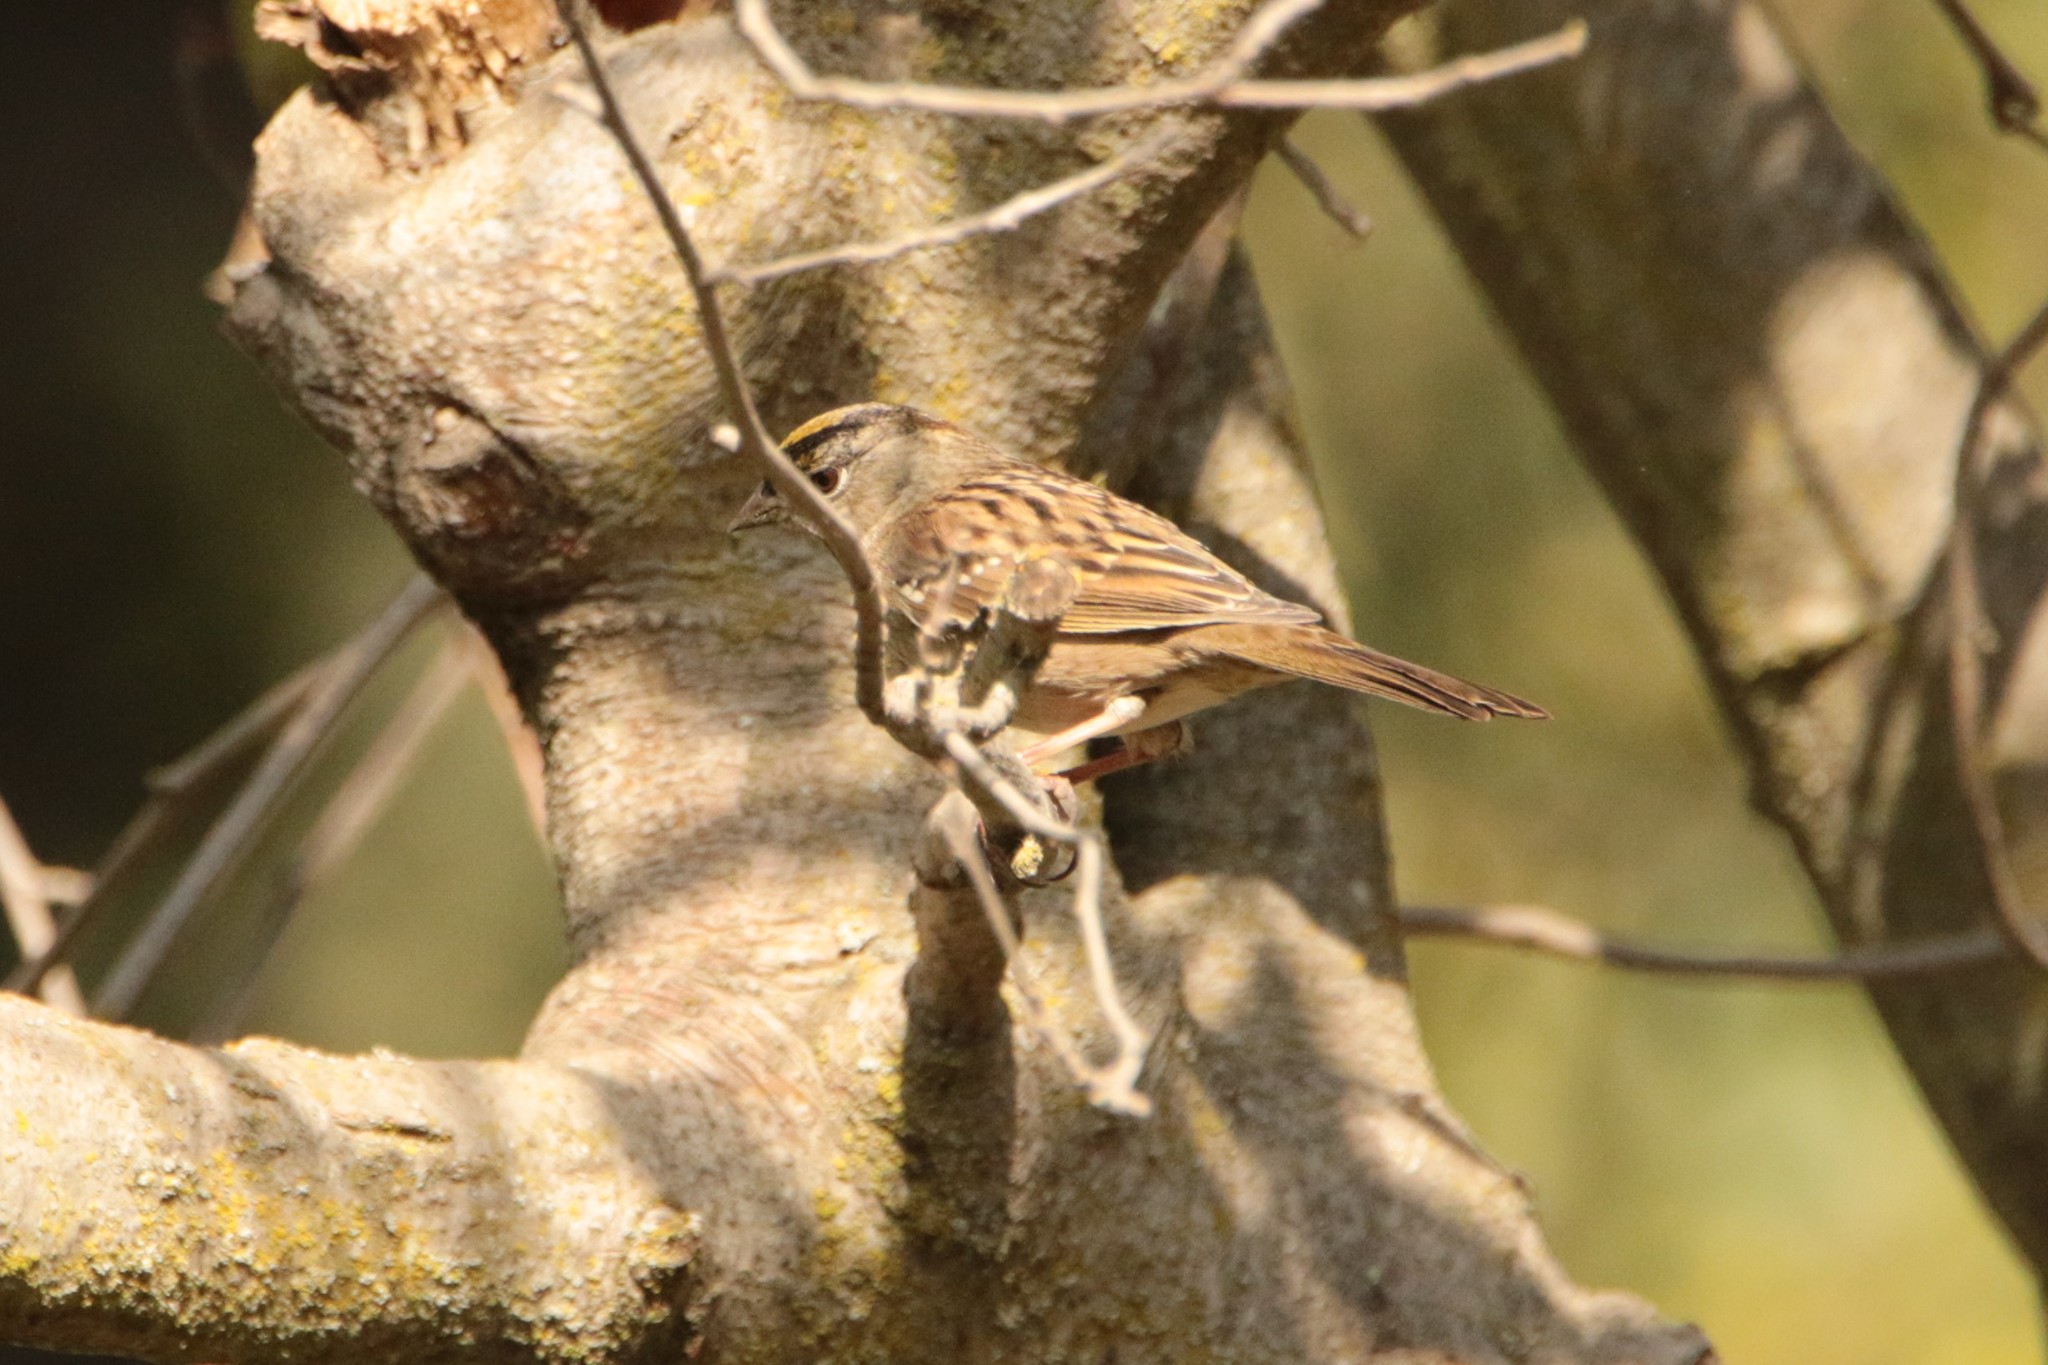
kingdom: Animalia
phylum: Chordata
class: Aves
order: Passeriformes
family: Passerellidae
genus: Zonotrichia
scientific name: Zonotrichia atricapilla
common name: Golden-crowned sparrow
